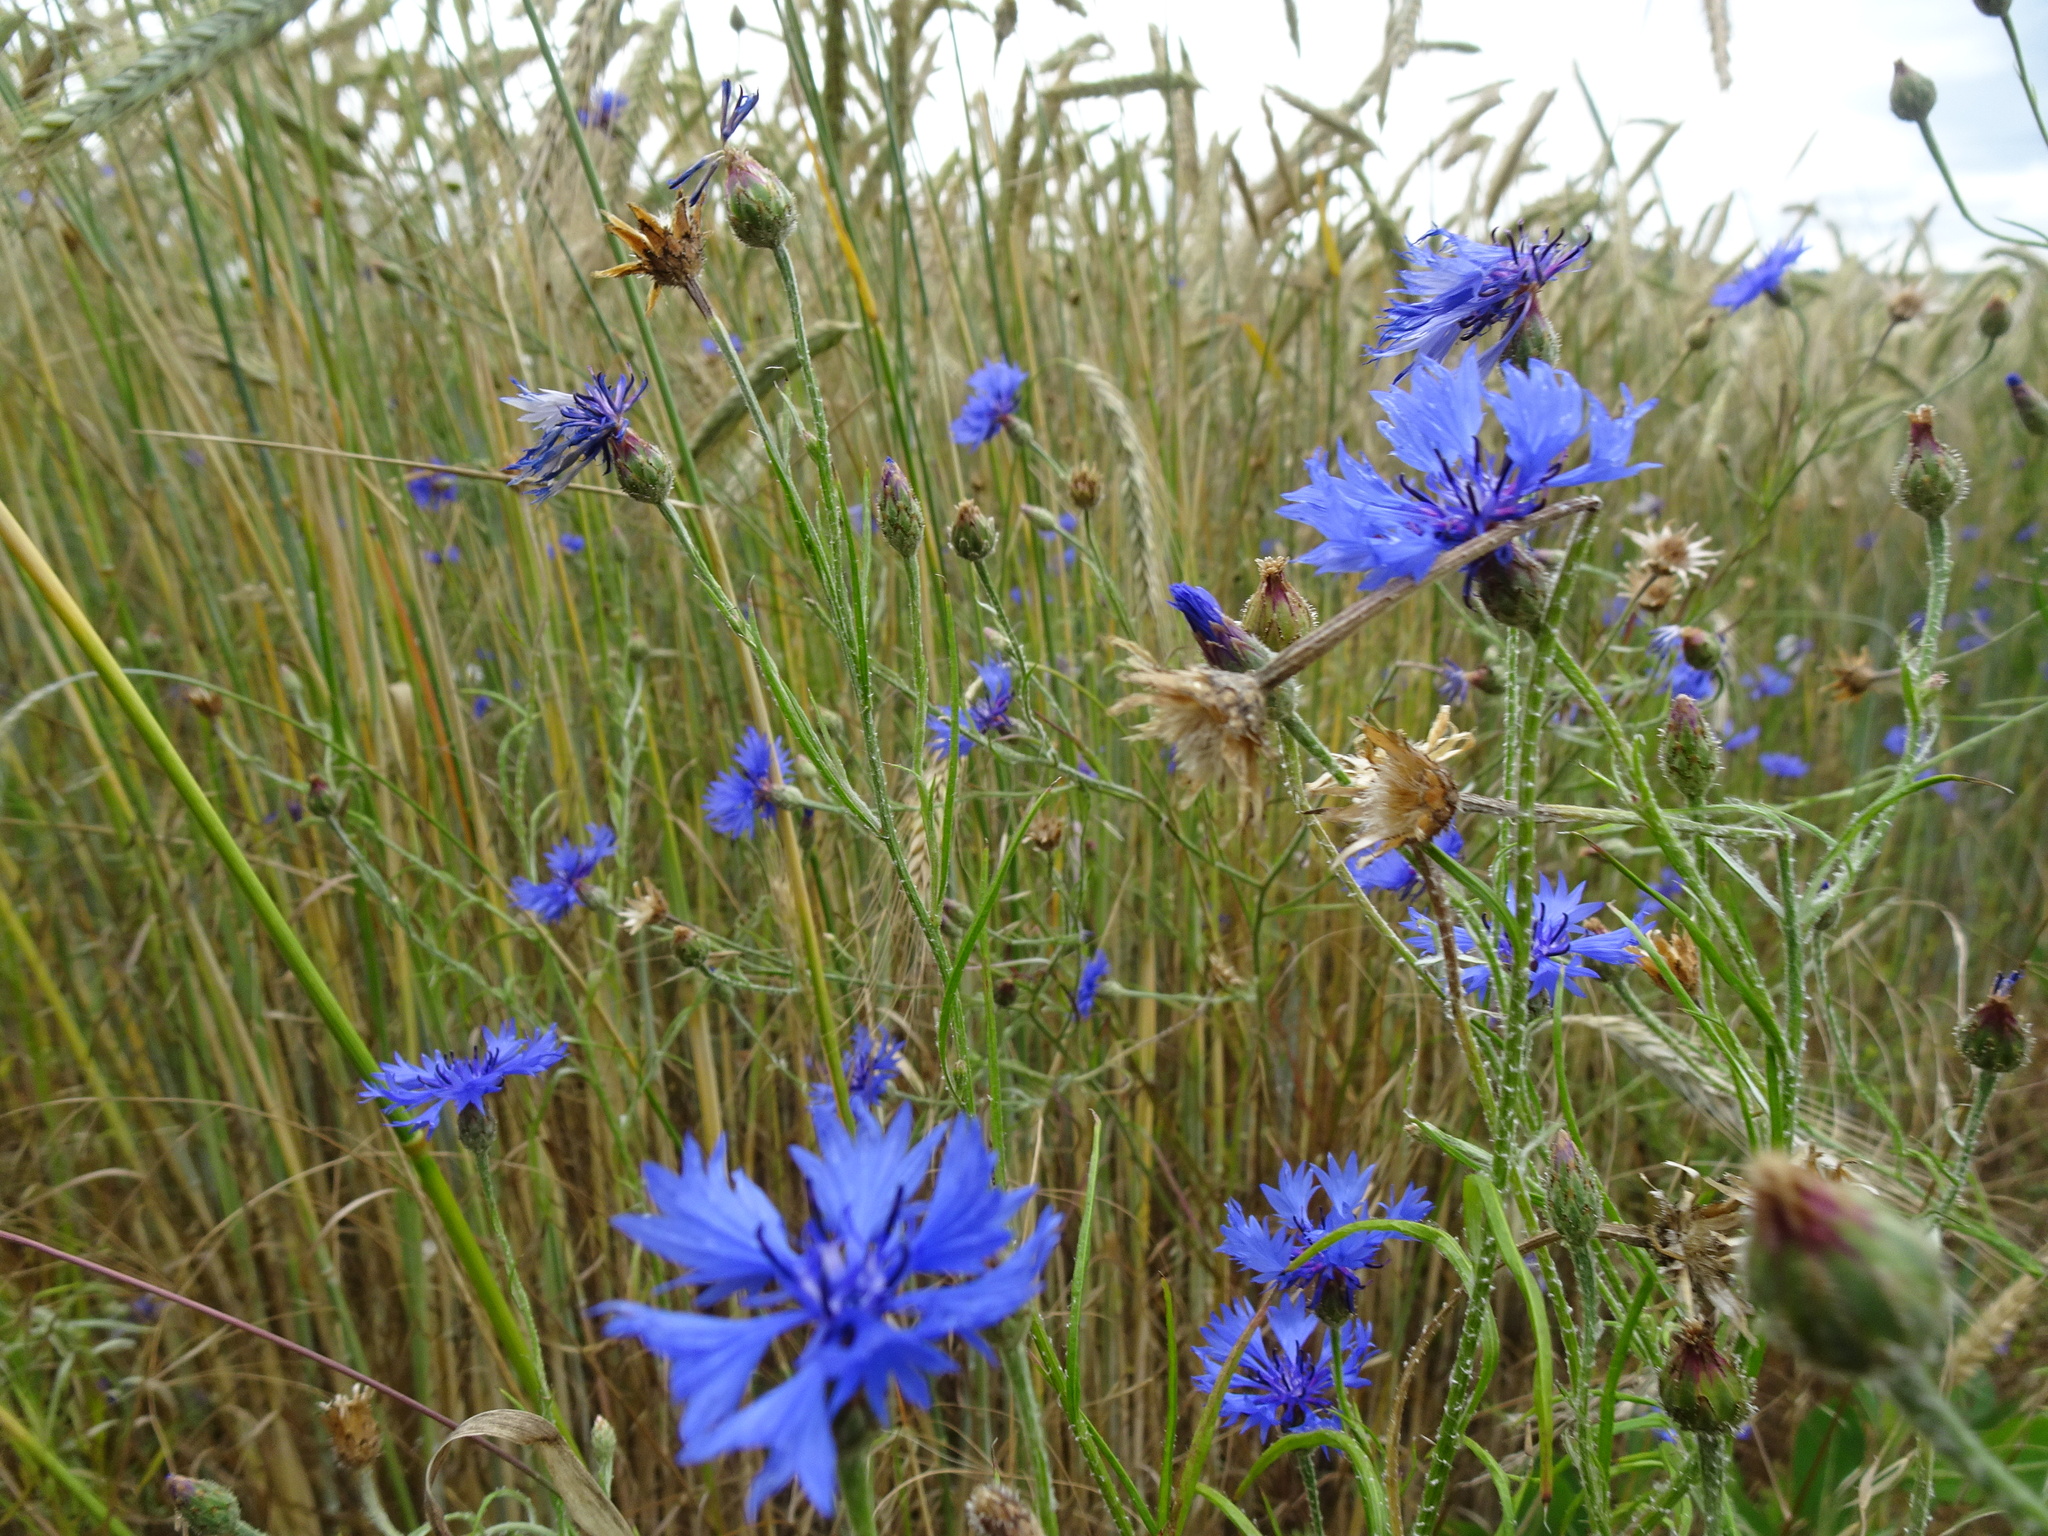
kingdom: Plantae
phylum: Tracheophyta
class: Magnoliopsida
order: Asterales
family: Asteraceae
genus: Centaurea
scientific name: Centaurea cyanus
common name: Cornflower
